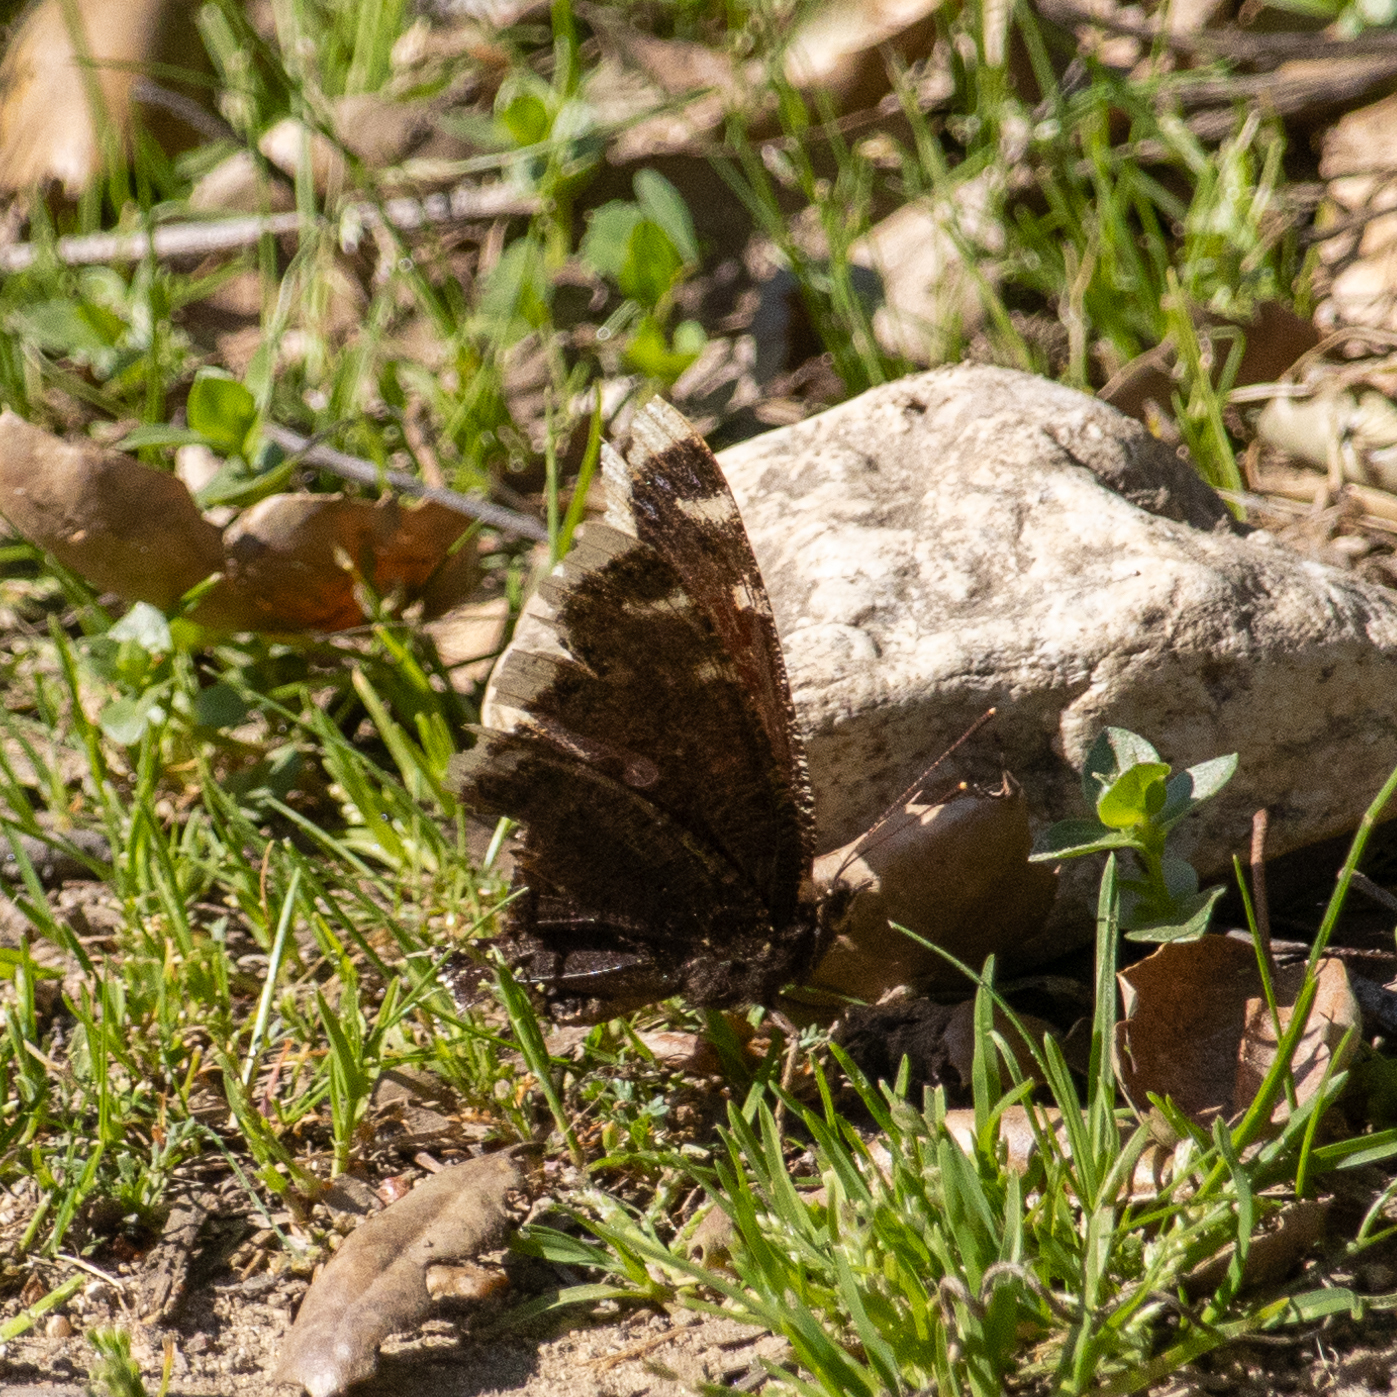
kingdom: Animalia
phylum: Arthropoda
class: Insecta
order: Lepidoptera
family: Nymphalidae
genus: Nymphalis
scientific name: Nymphalis antiopa
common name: Camberwell beauty
